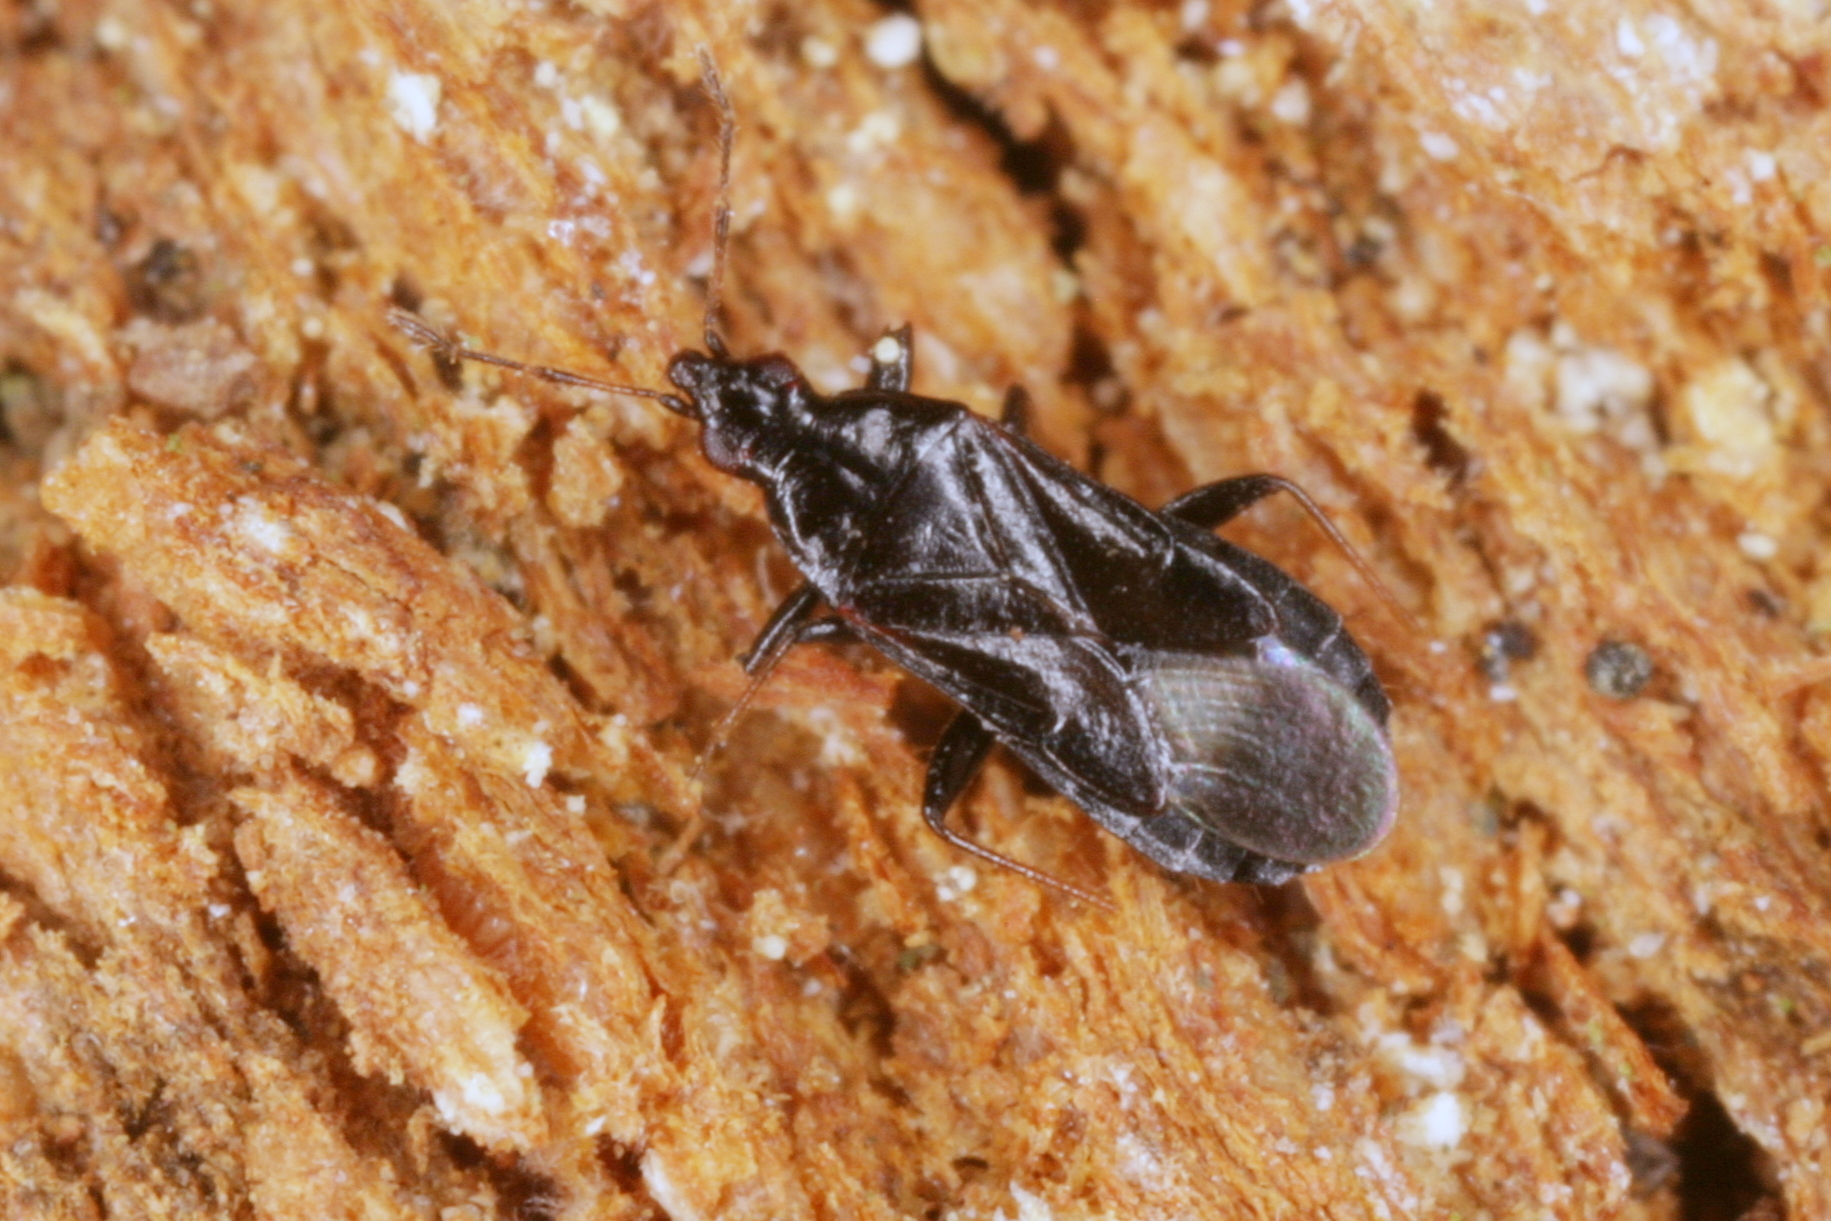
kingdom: Animalia
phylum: Arthropoda
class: Insecta
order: Hemiptera
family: Anthocoridae
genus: Dufouriellus
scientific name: Dufouriellus ater
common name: Minute pirate bug
